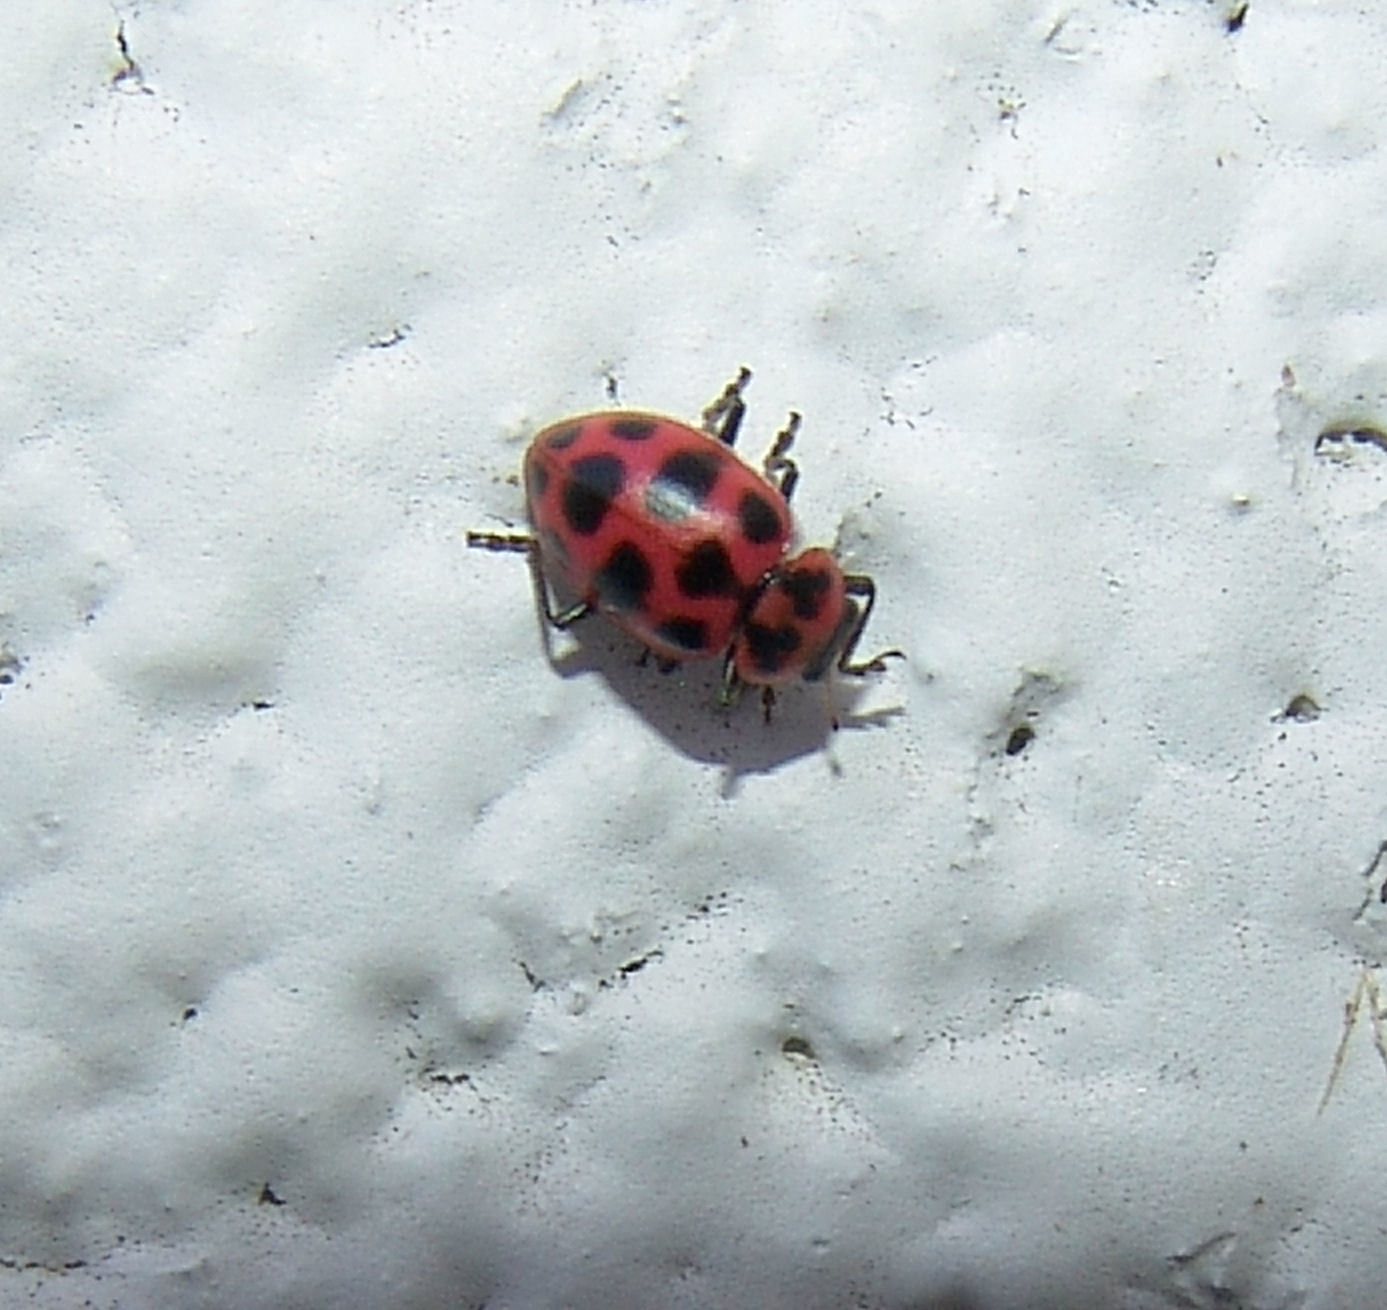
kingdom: Animalia
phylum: Arthropoda
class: Insecta
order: Coleoptera
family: Coccinellidae
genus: Coleomegilla
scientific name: Coleomegilla maculata
